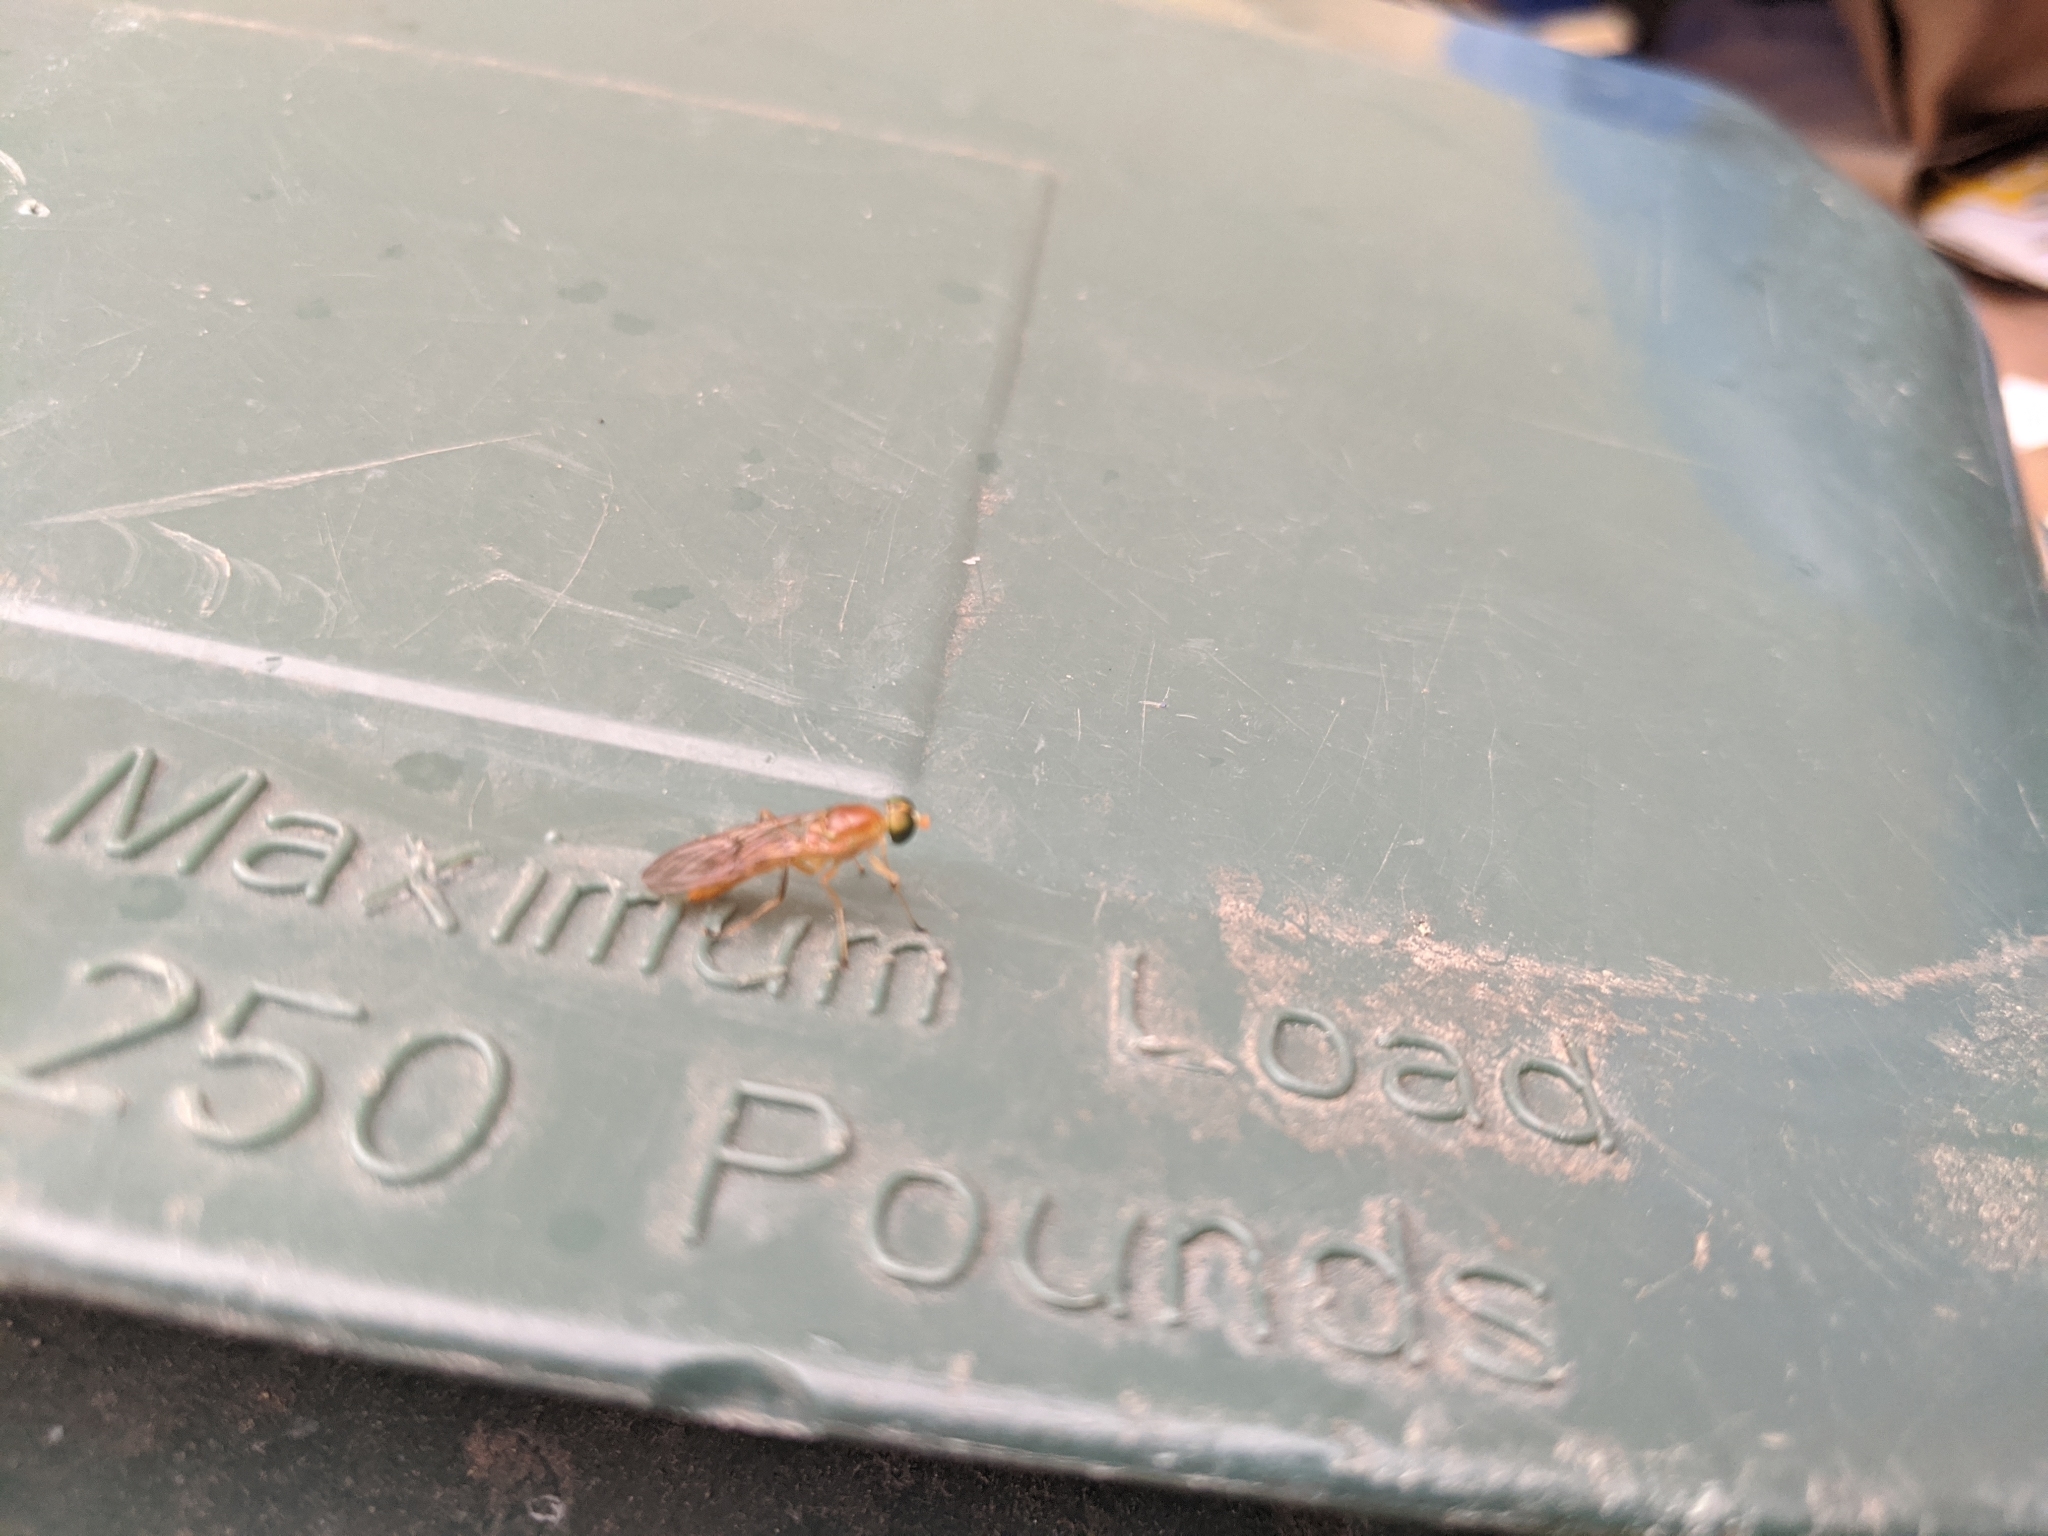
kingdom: Animalia
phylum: Arthropoda
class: Insecta
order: Diptera
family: Stratiomyidae
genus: Ptecticus
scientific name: Ptecticus trivittatus
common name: Compost fly
